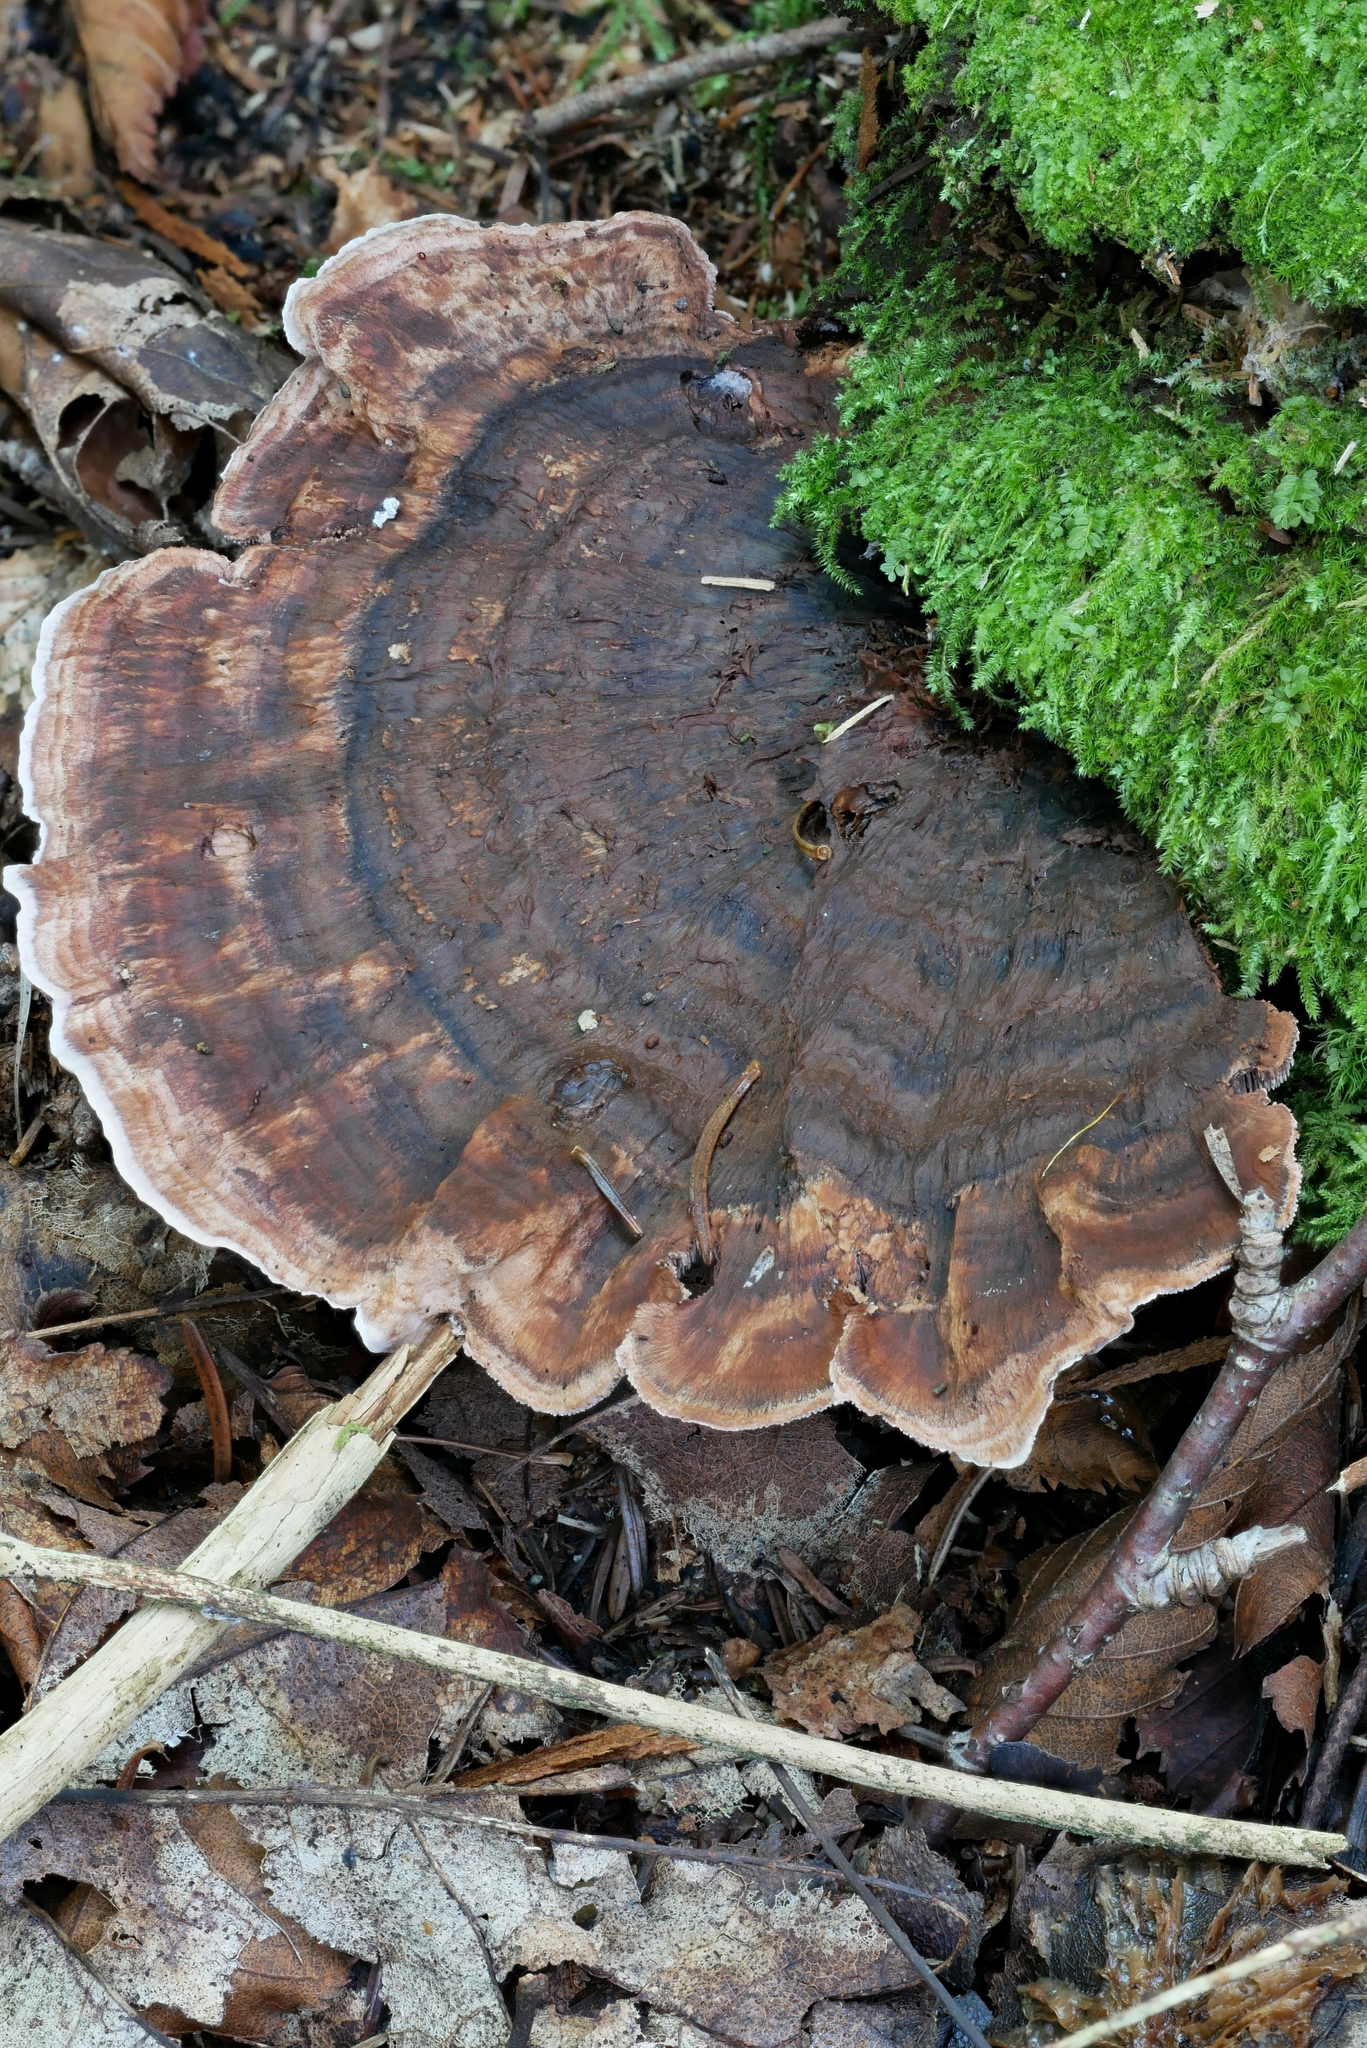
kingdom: Fungi
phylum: Basidiomycota
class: Agaricomycetes
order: Thelephorales
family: Bankeraceae
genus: Hydnellum
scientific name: Hydnellum concrescens
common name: Zoned tooth
